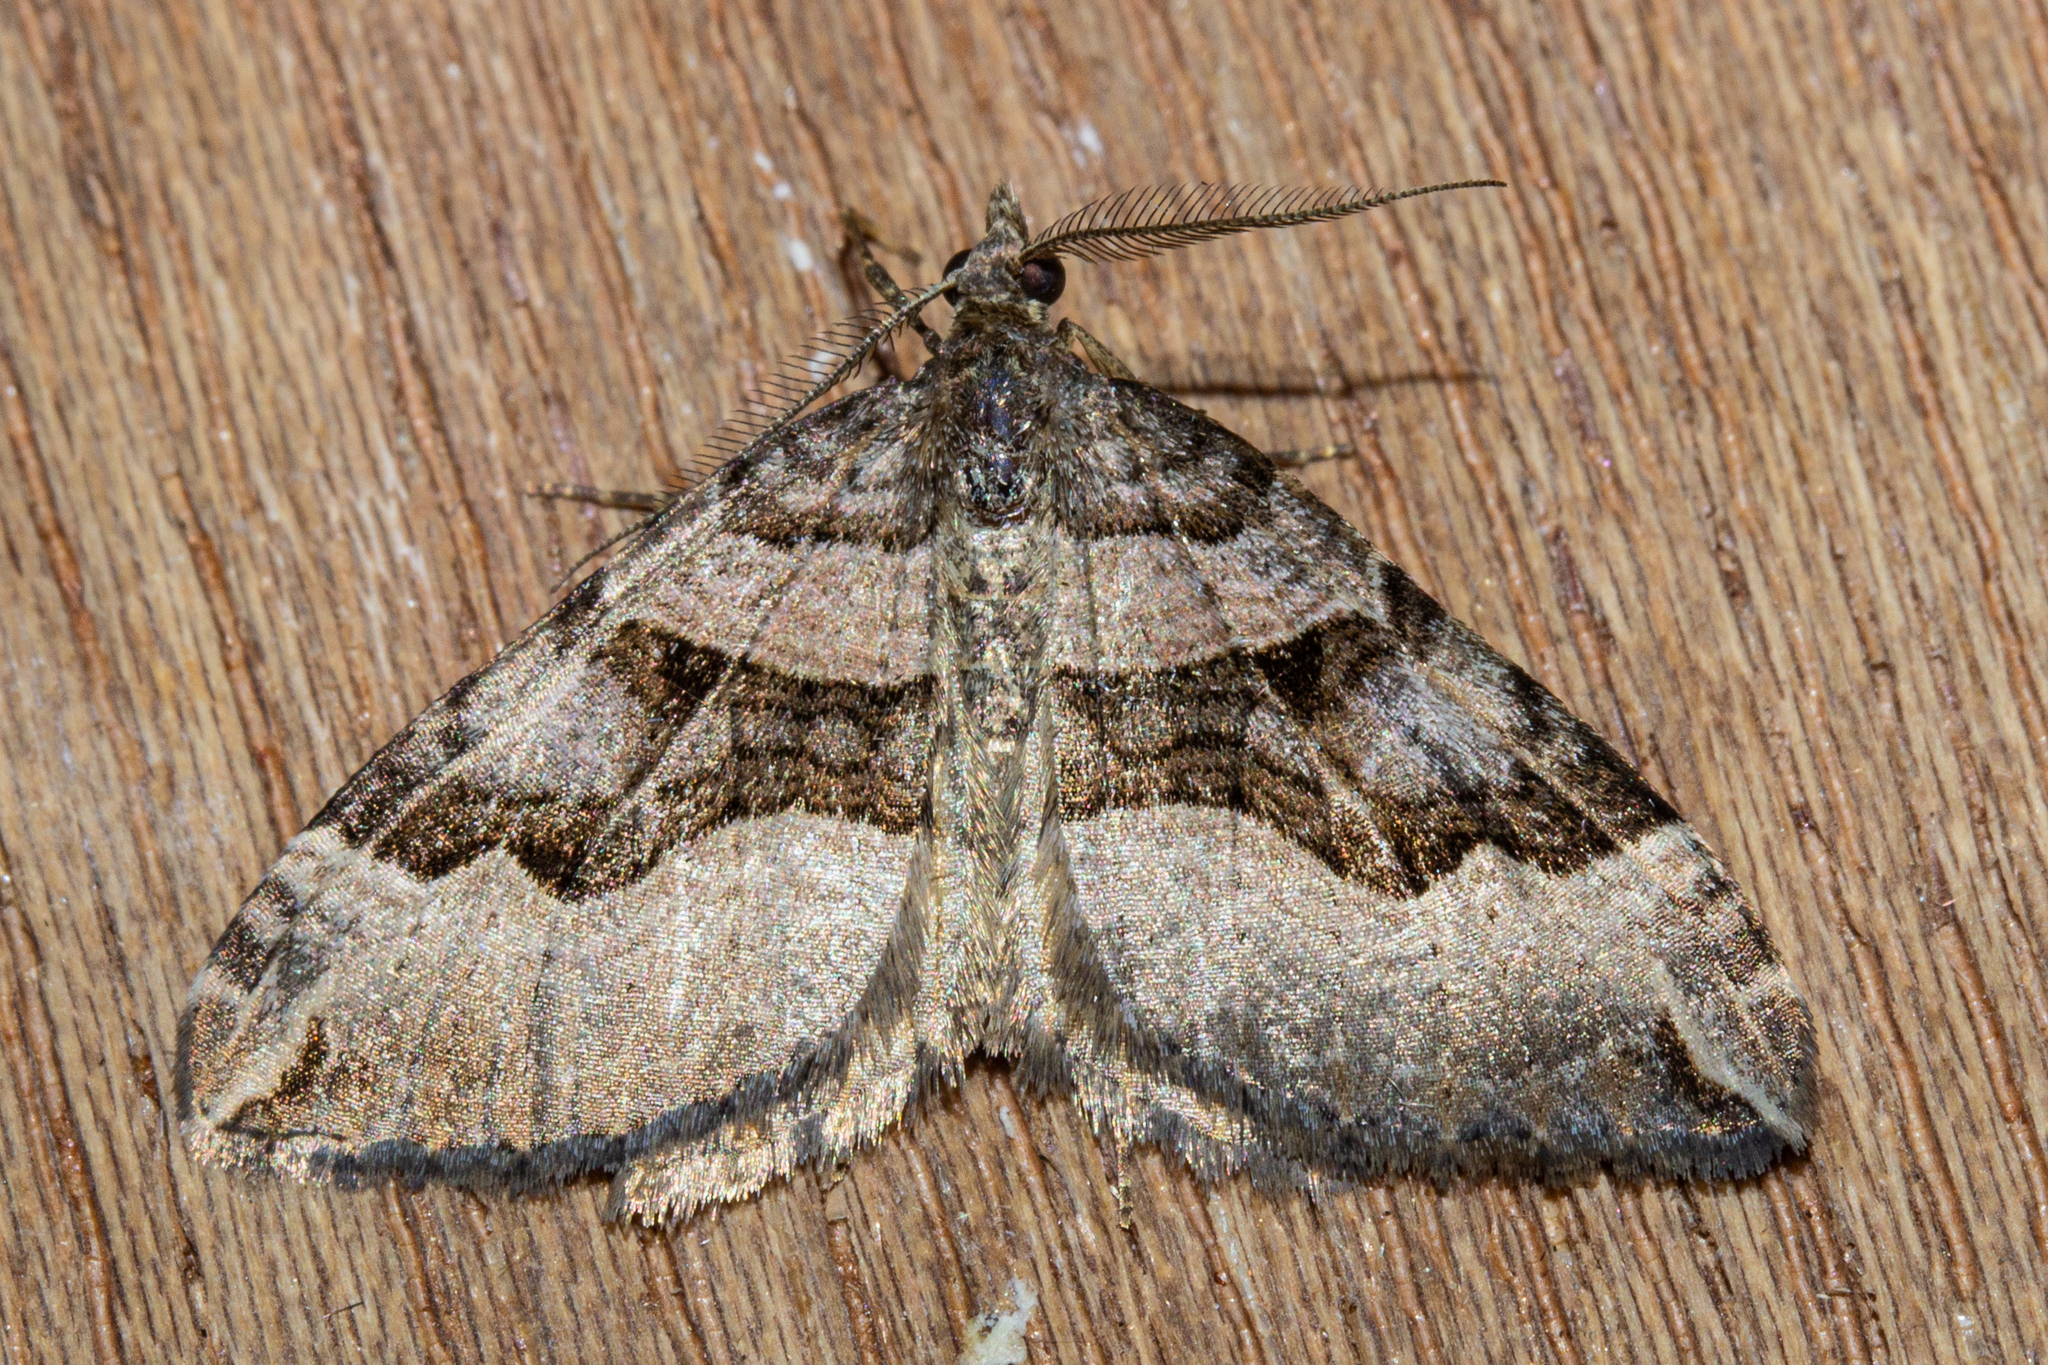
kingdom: Animalia
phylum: Arthropoda
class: Insecta
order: Lepidoptera
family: Geometridae
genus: Xanthorhoe
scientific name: Xanthorhoe semifissata
